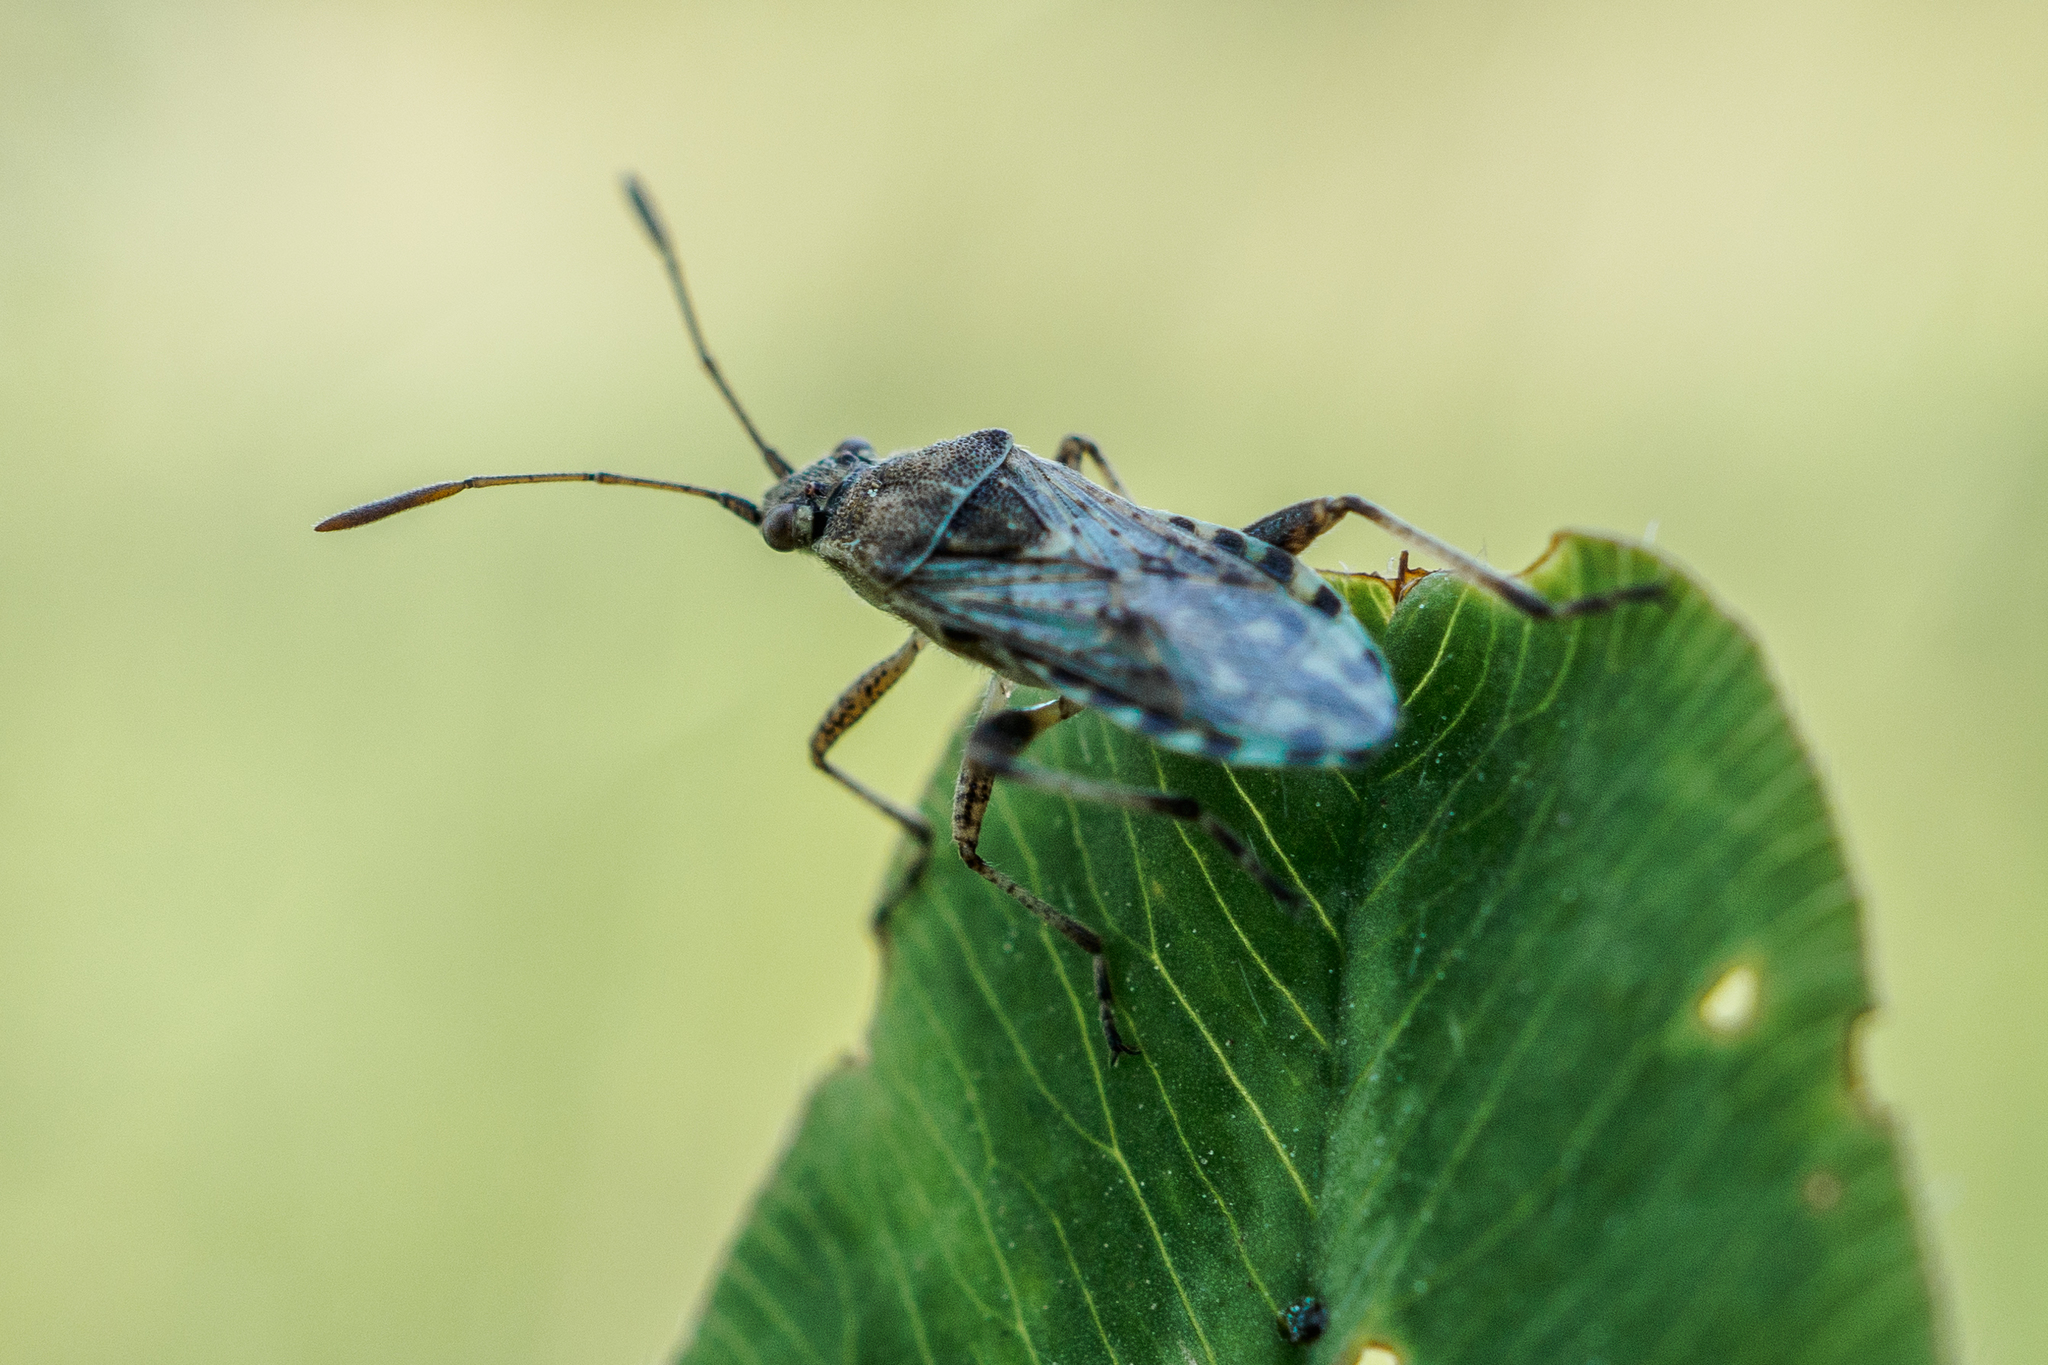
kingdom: Animalia
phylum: Arthropoda
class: Insecta
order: Hemiptera
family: Rhopalidae
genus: Stictopleurus
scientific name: Stictopleurus punctatonervosus
